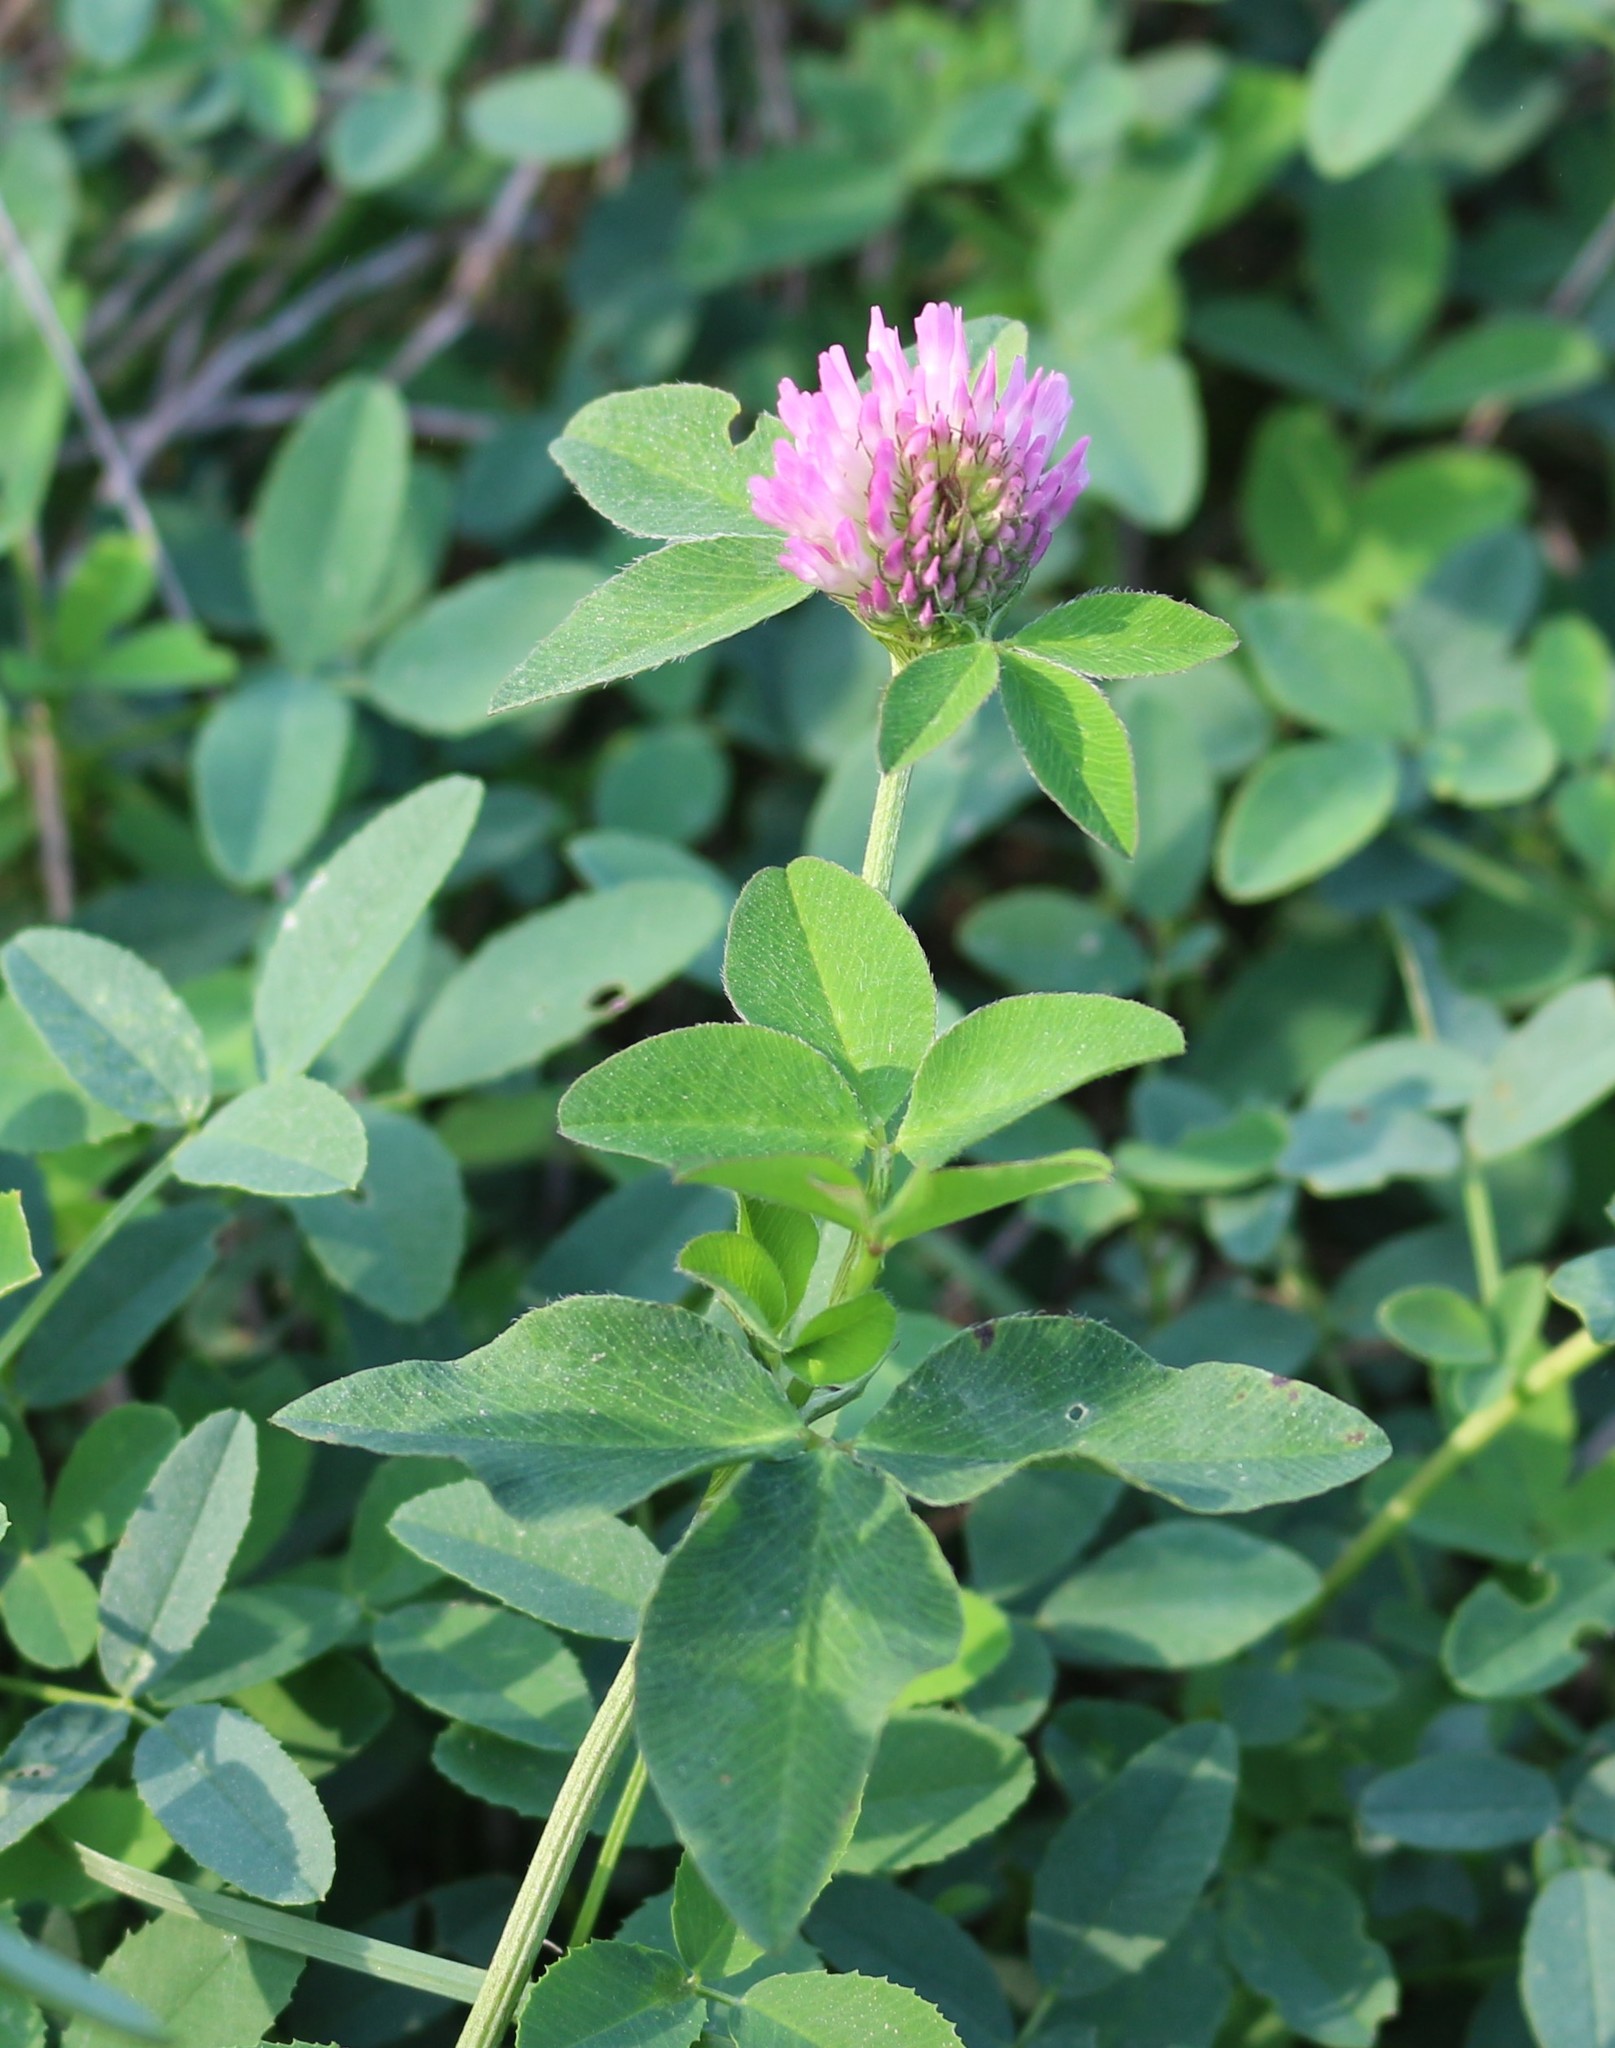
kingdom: Plantae
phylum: Tracheophyta
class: Magnoliopsida
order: Fabales
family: Fabaceae
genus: Trifolium
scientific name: Trifolium pratense
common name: Red clover
